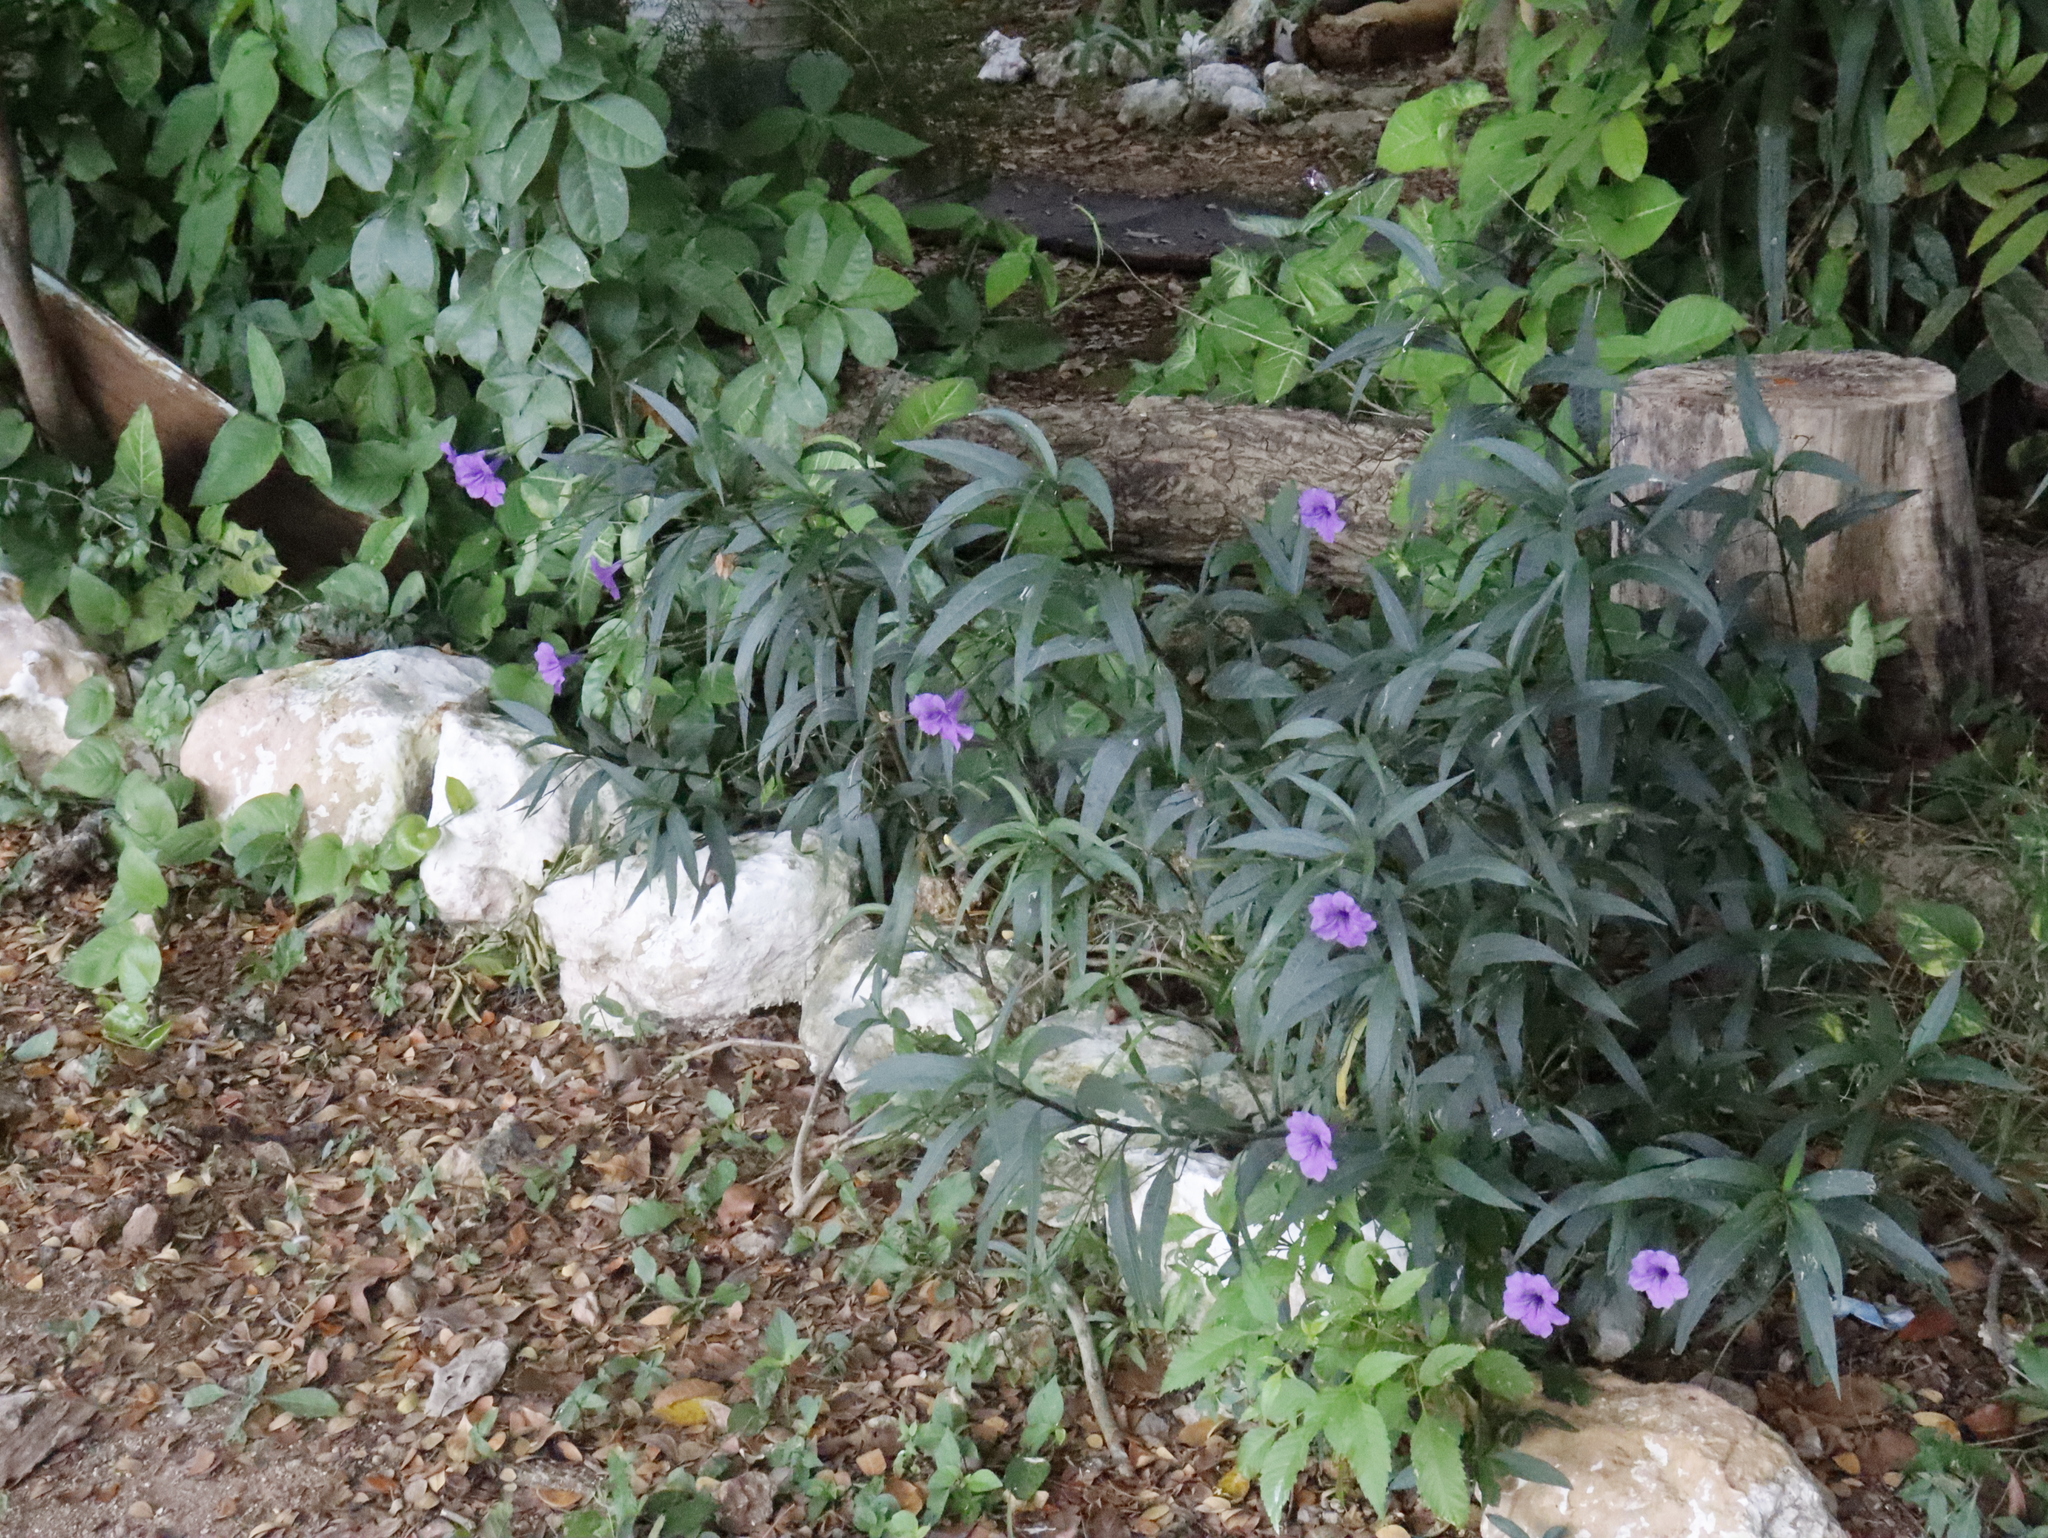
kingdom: Plantae
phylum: Tracheophyta
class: Magnoliopsida
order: Lamiales
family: Acanthaceae
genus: Ruellia
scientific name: Ruellia simplex
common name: Softseed wild petunia
